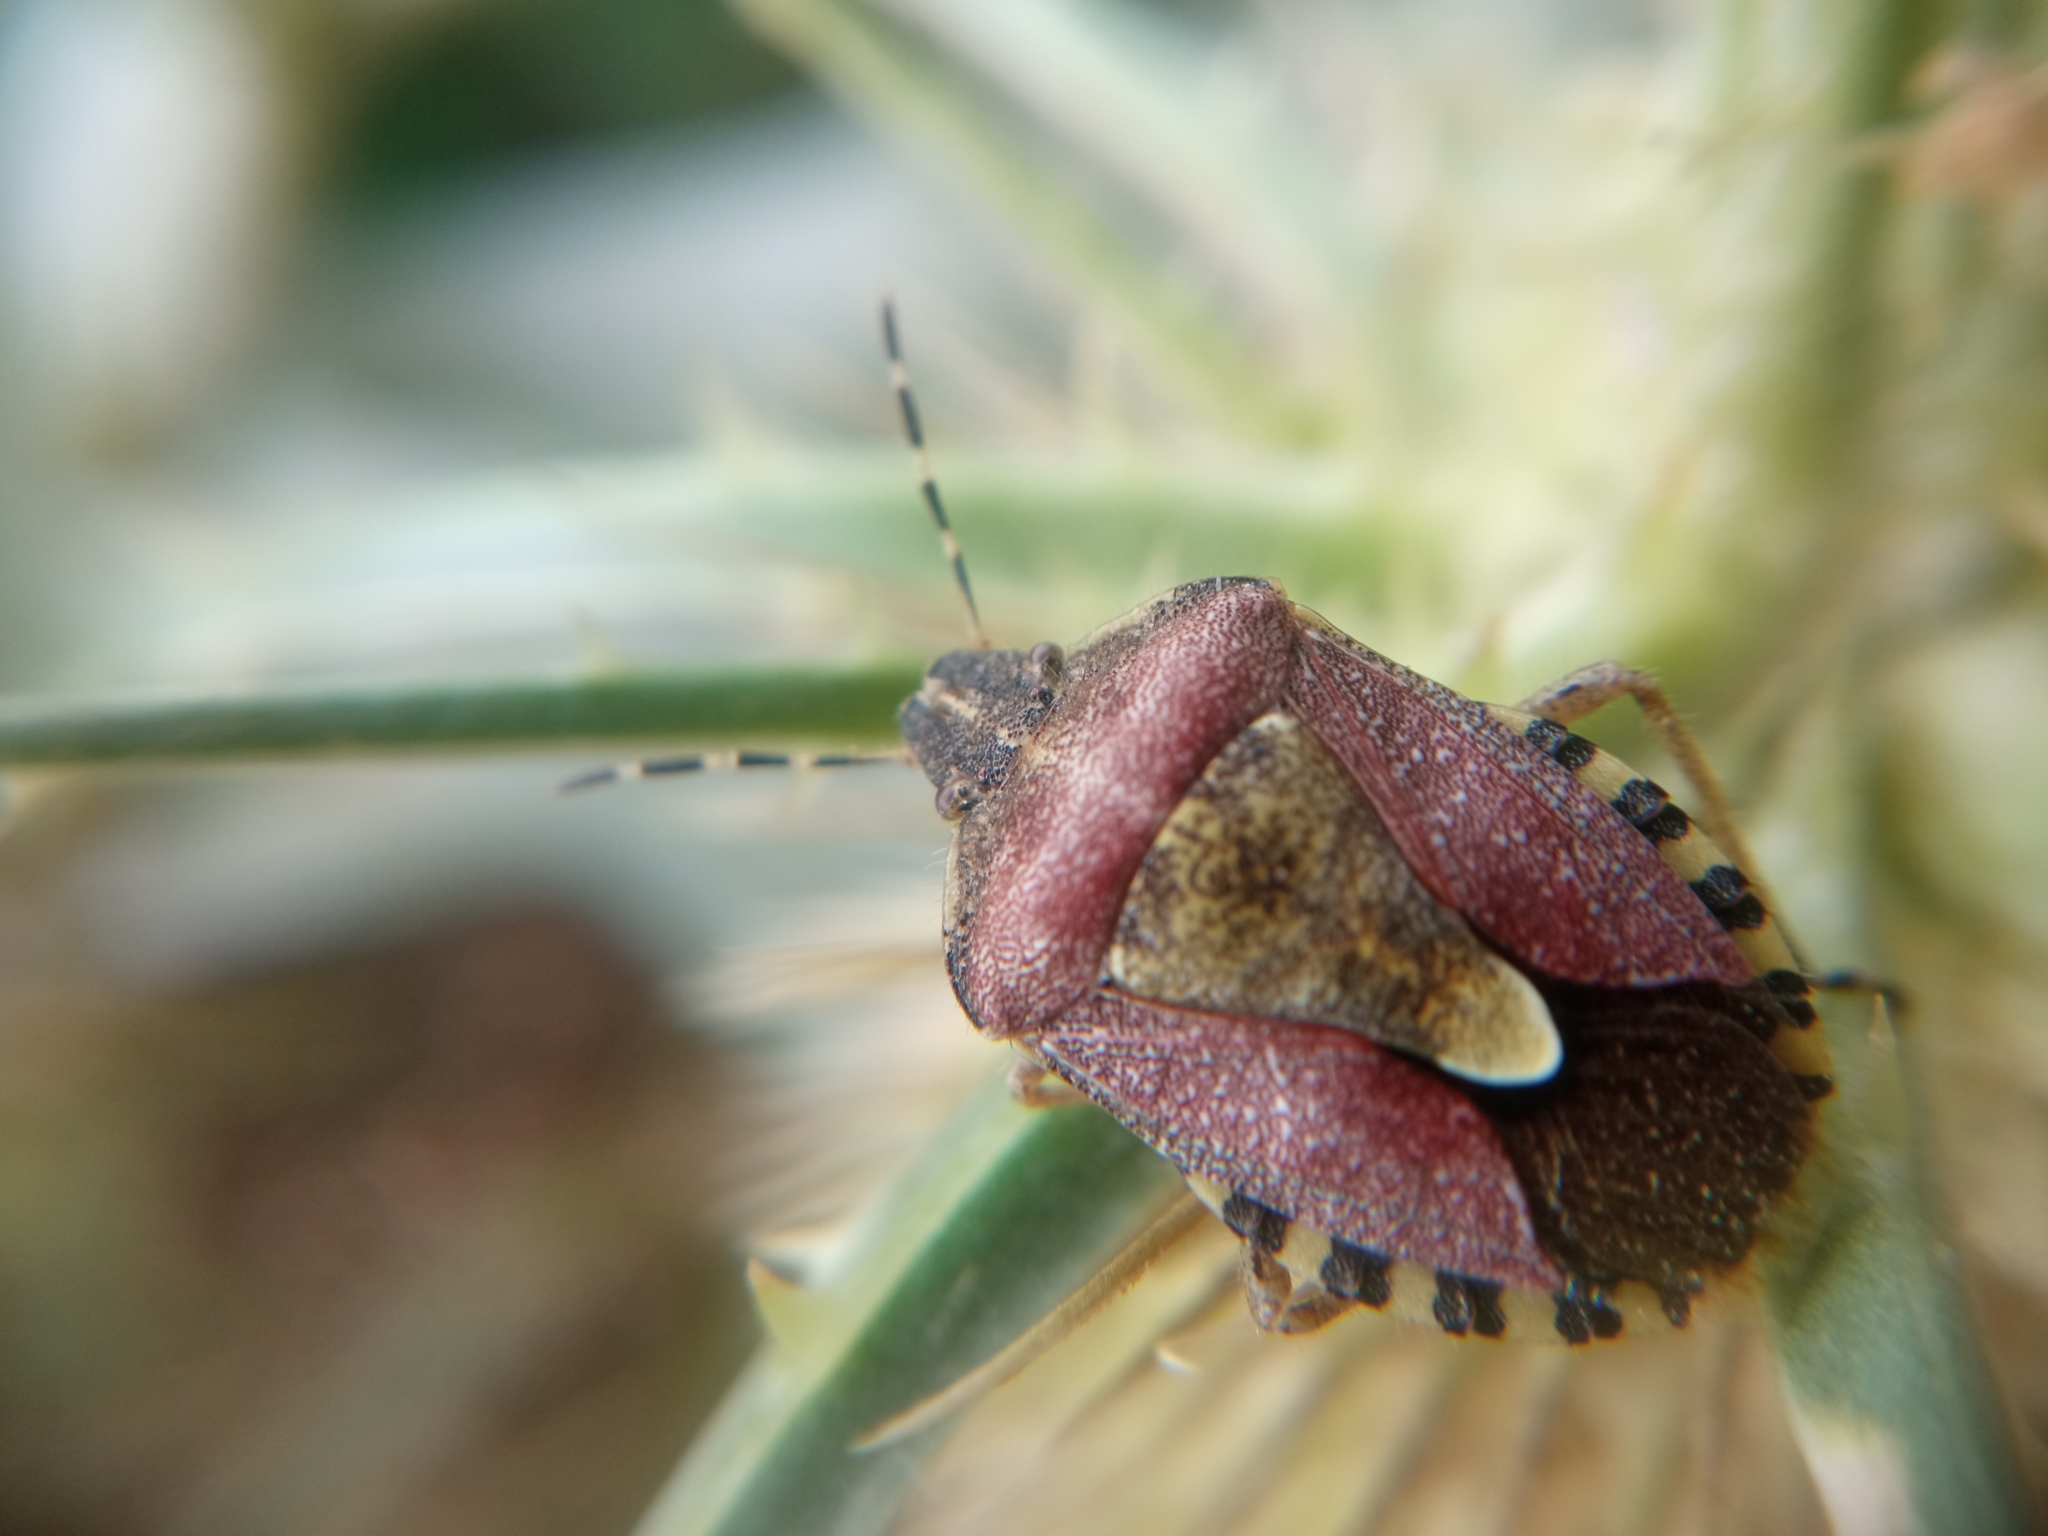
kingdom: Animalia
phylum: Arthropoda
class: Insecta
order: Hemiptera
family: Pentatomidae
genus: Dolycoris
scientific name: Dolycoris baccarum
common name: Sloe bug
